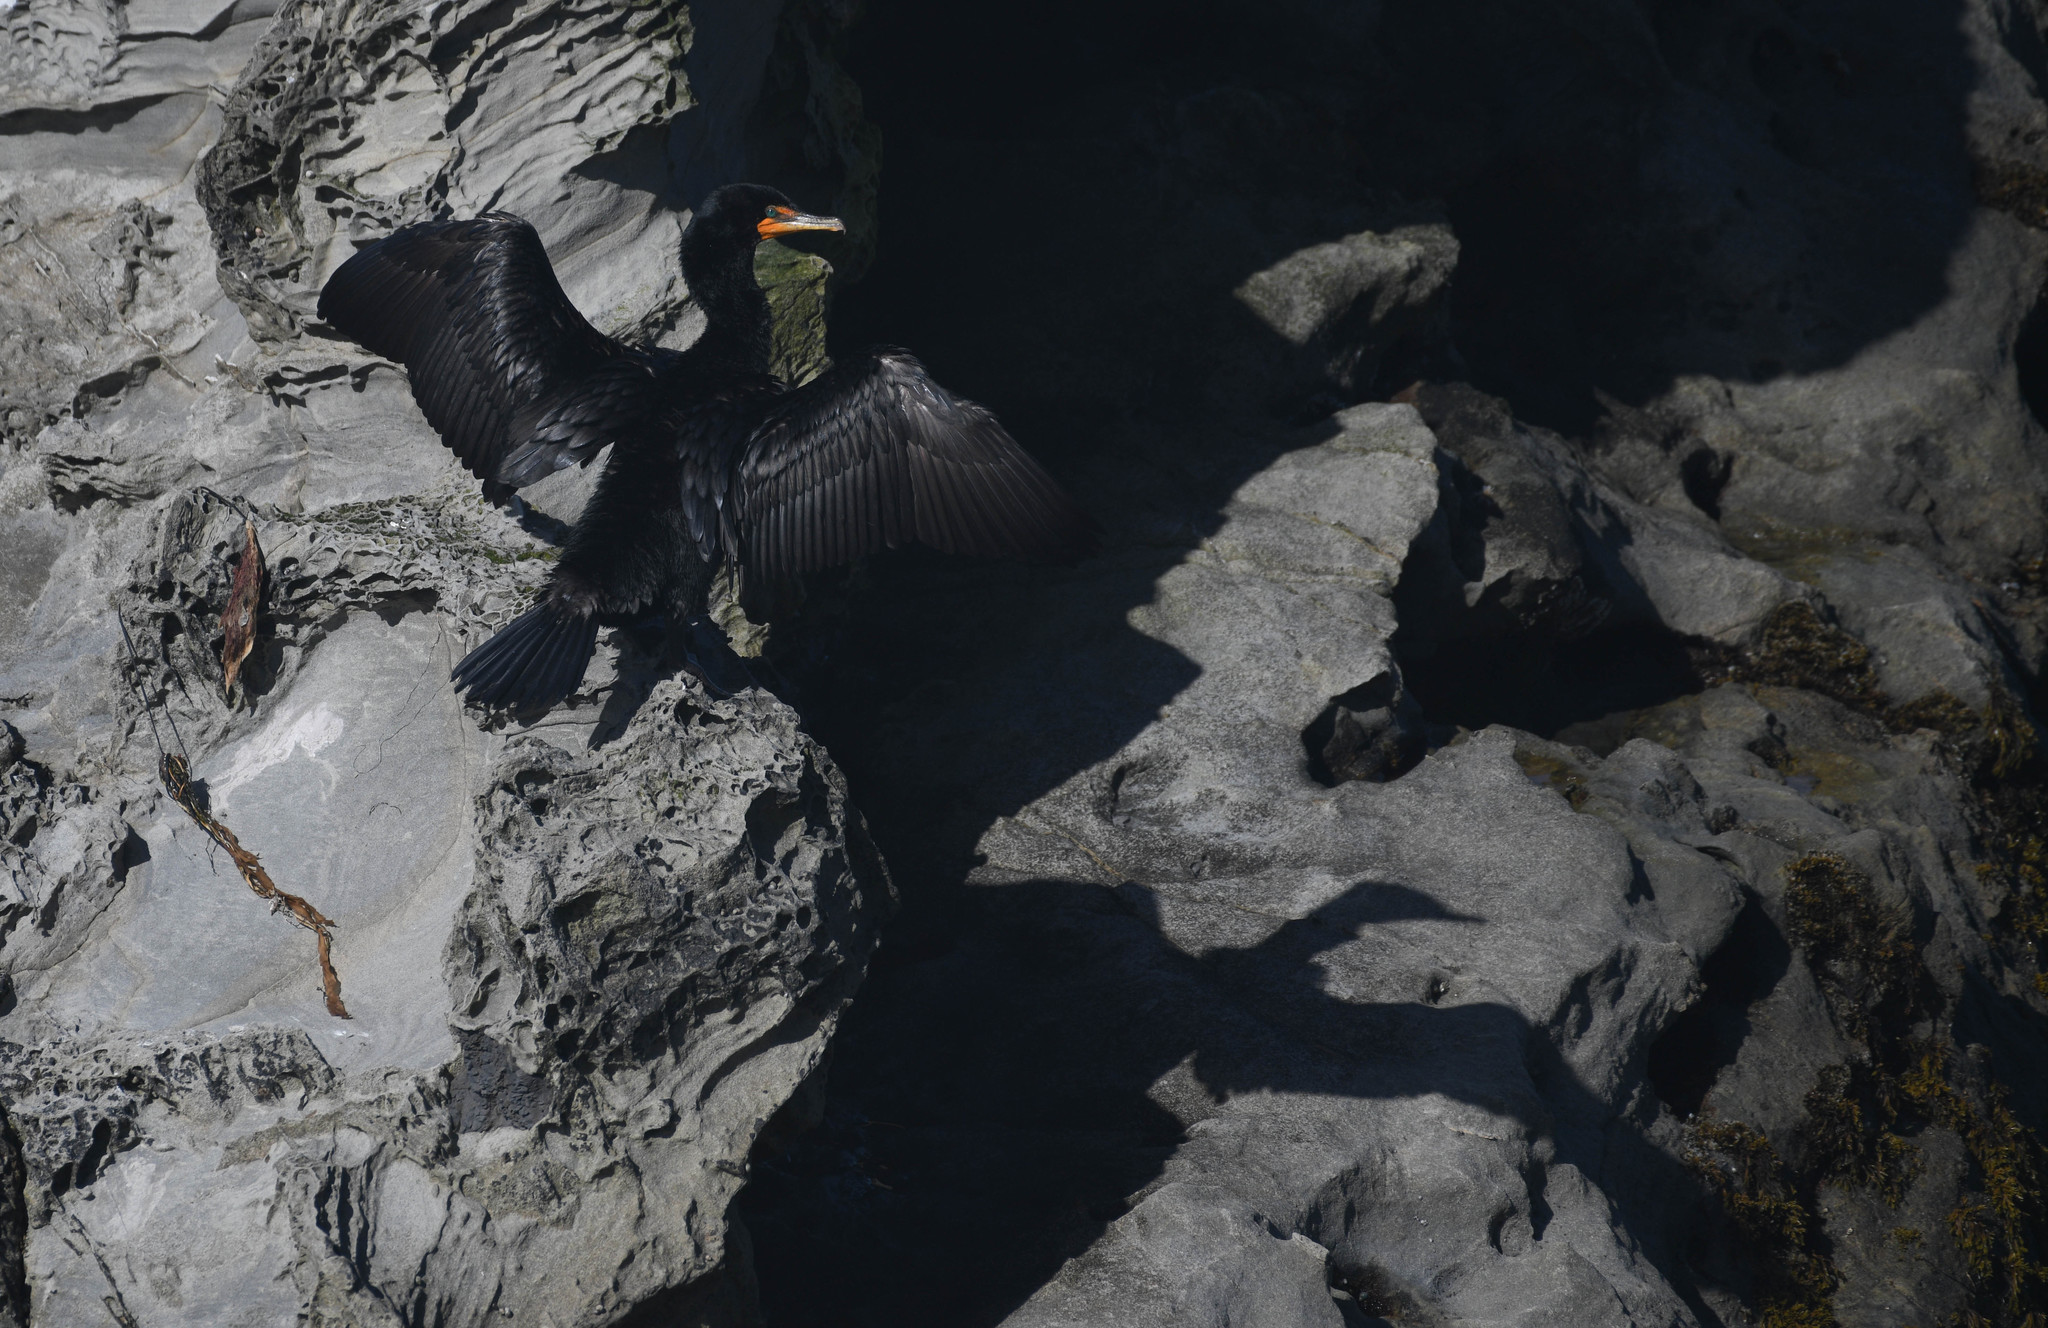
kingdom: Animalia
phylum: Chordata
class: Aves
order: Suliformes
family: Phalacrocoracidae
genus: Phalacrocorax
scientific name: Phalacrocorax auritus
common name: Double-crested cormorant
